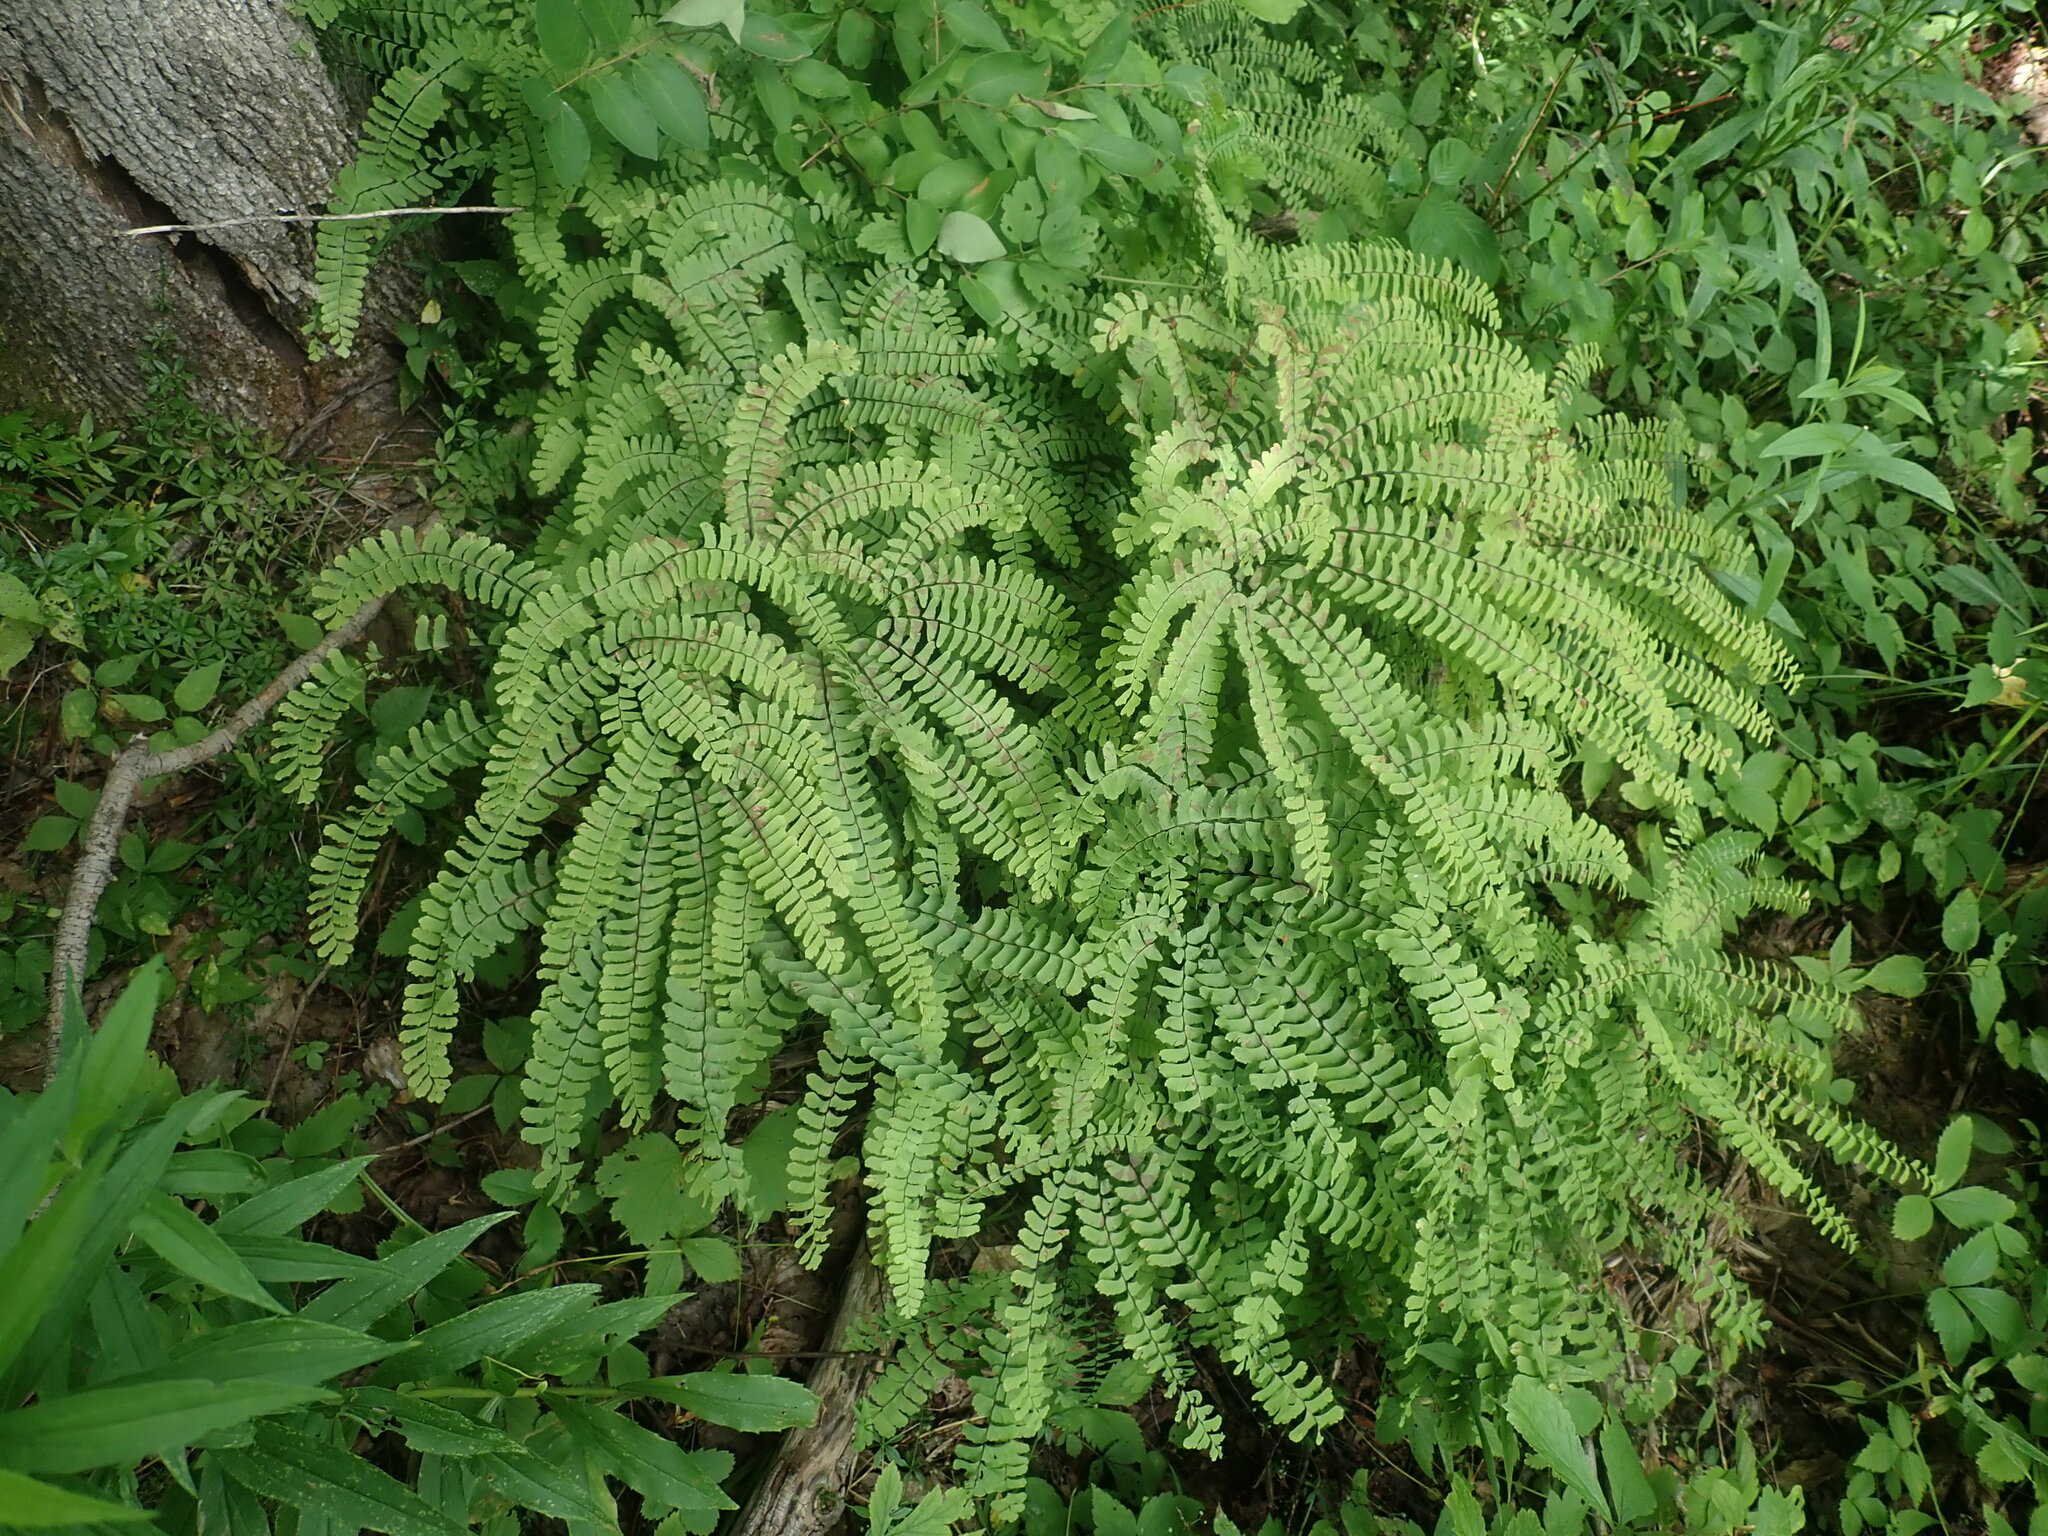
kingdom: Plantae
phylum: Tracheophyta
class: Polypodiopsida
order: Polypodiales
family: Pteridaceae
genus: Adiantum
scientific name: Adiantum pedatum
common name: Five-finger fern
